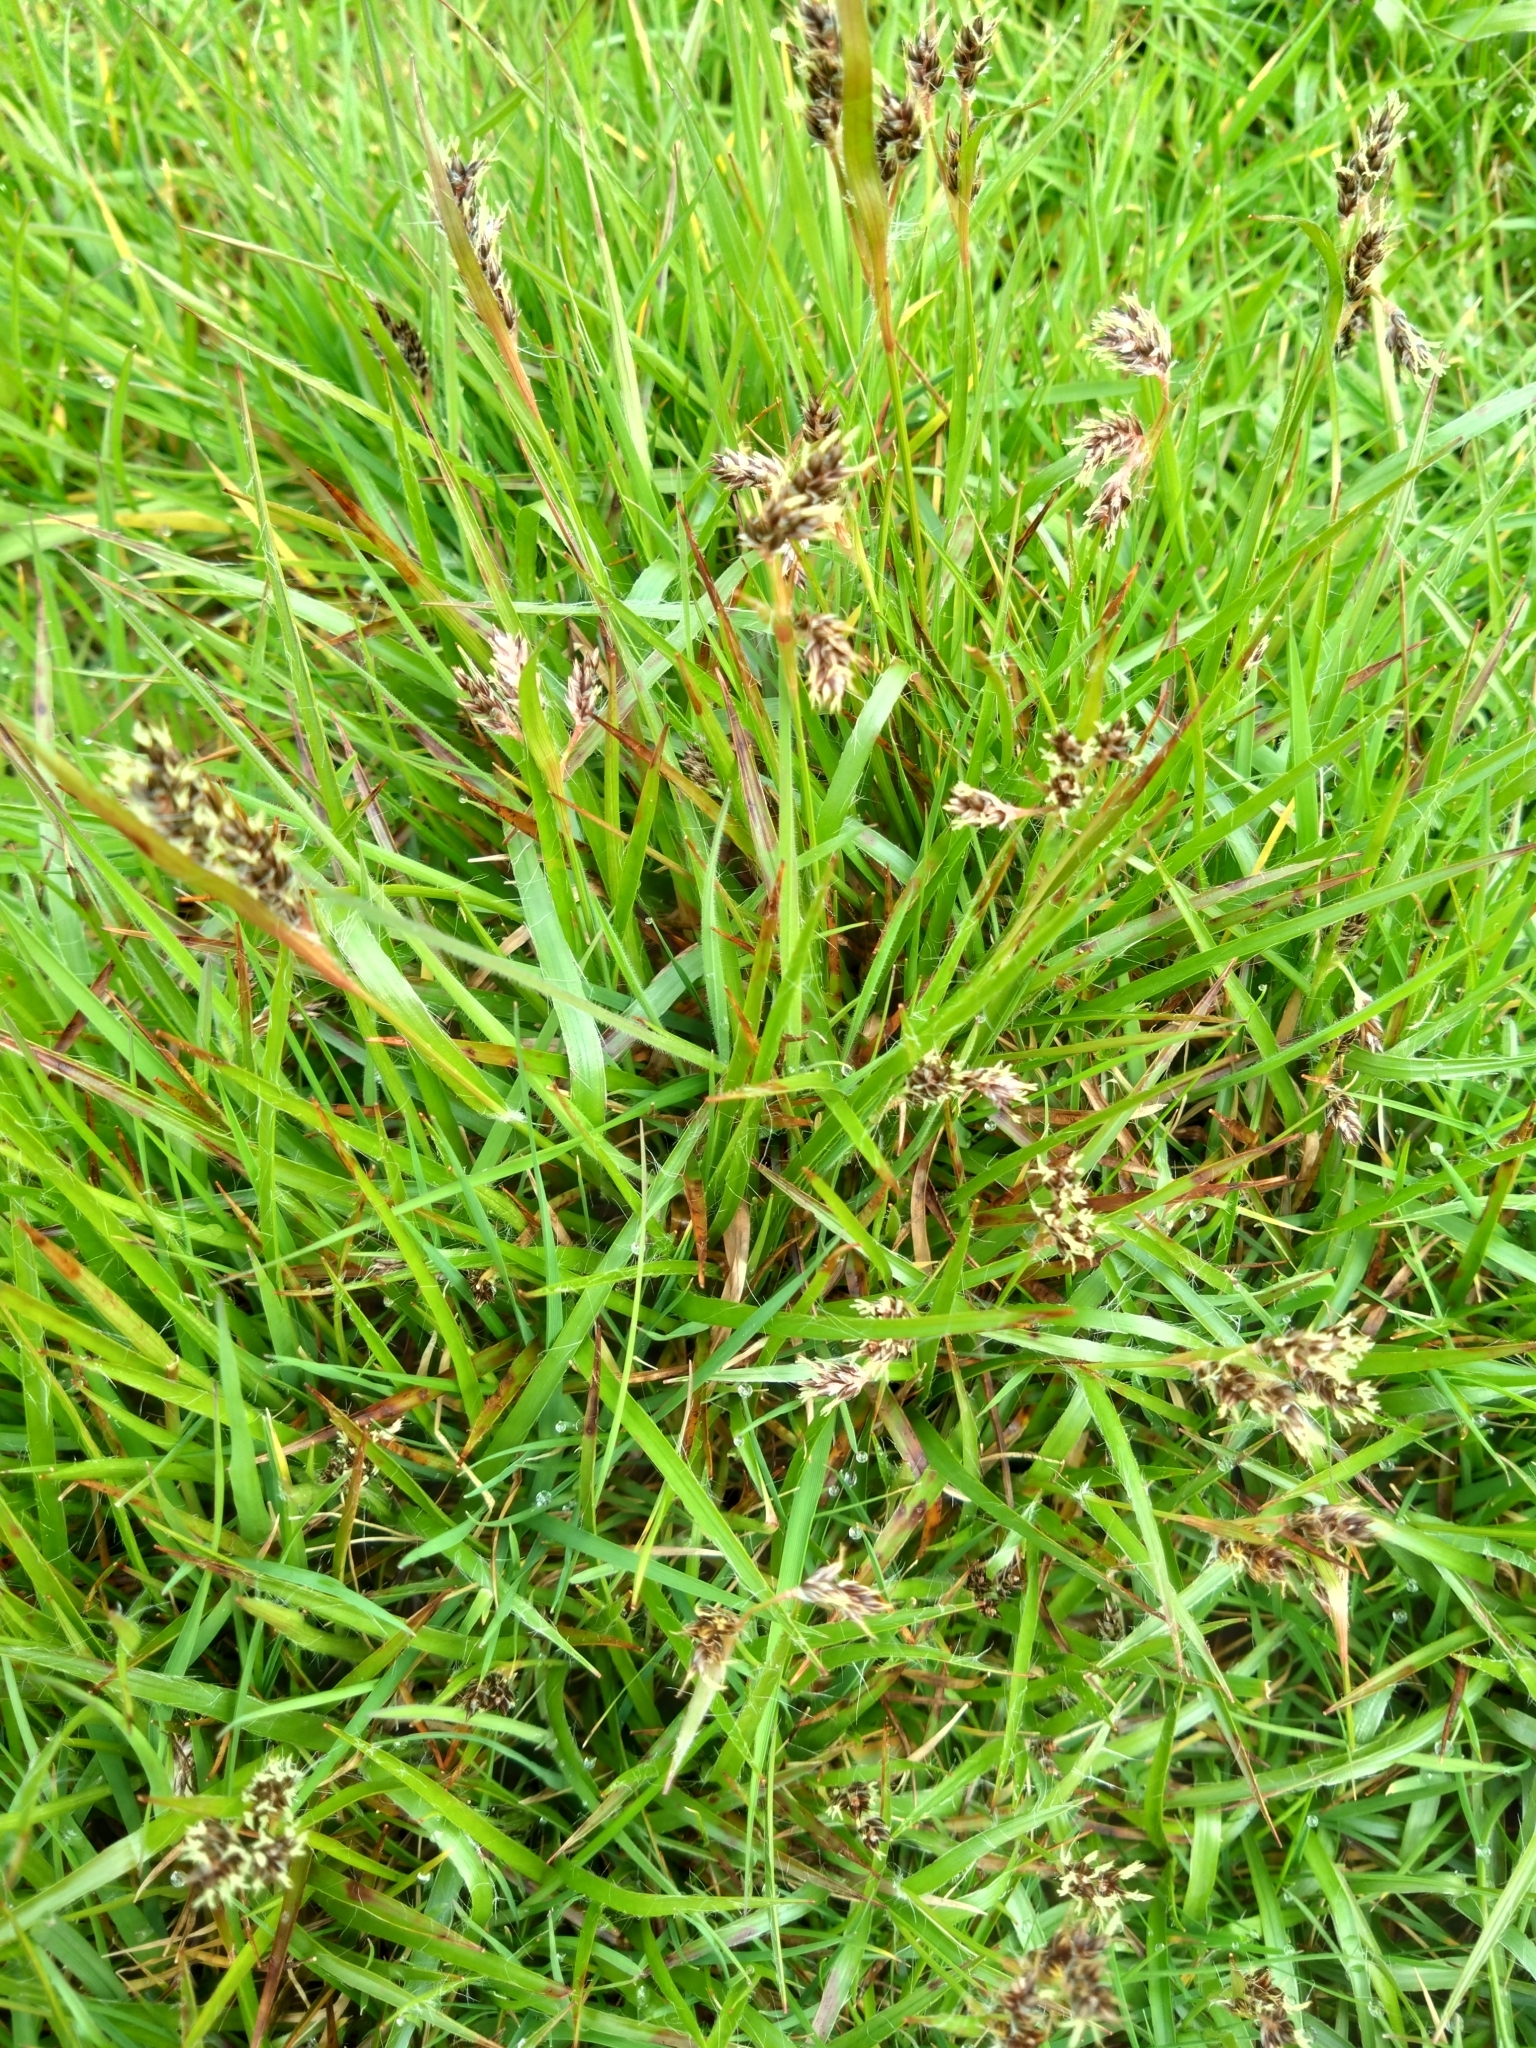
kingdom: Plantae
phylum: Tracheophyta
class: Liliopsida
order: Poales
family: Juncaceae
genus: Luzula
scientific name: Luzula campestris
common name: Field wood-rush
